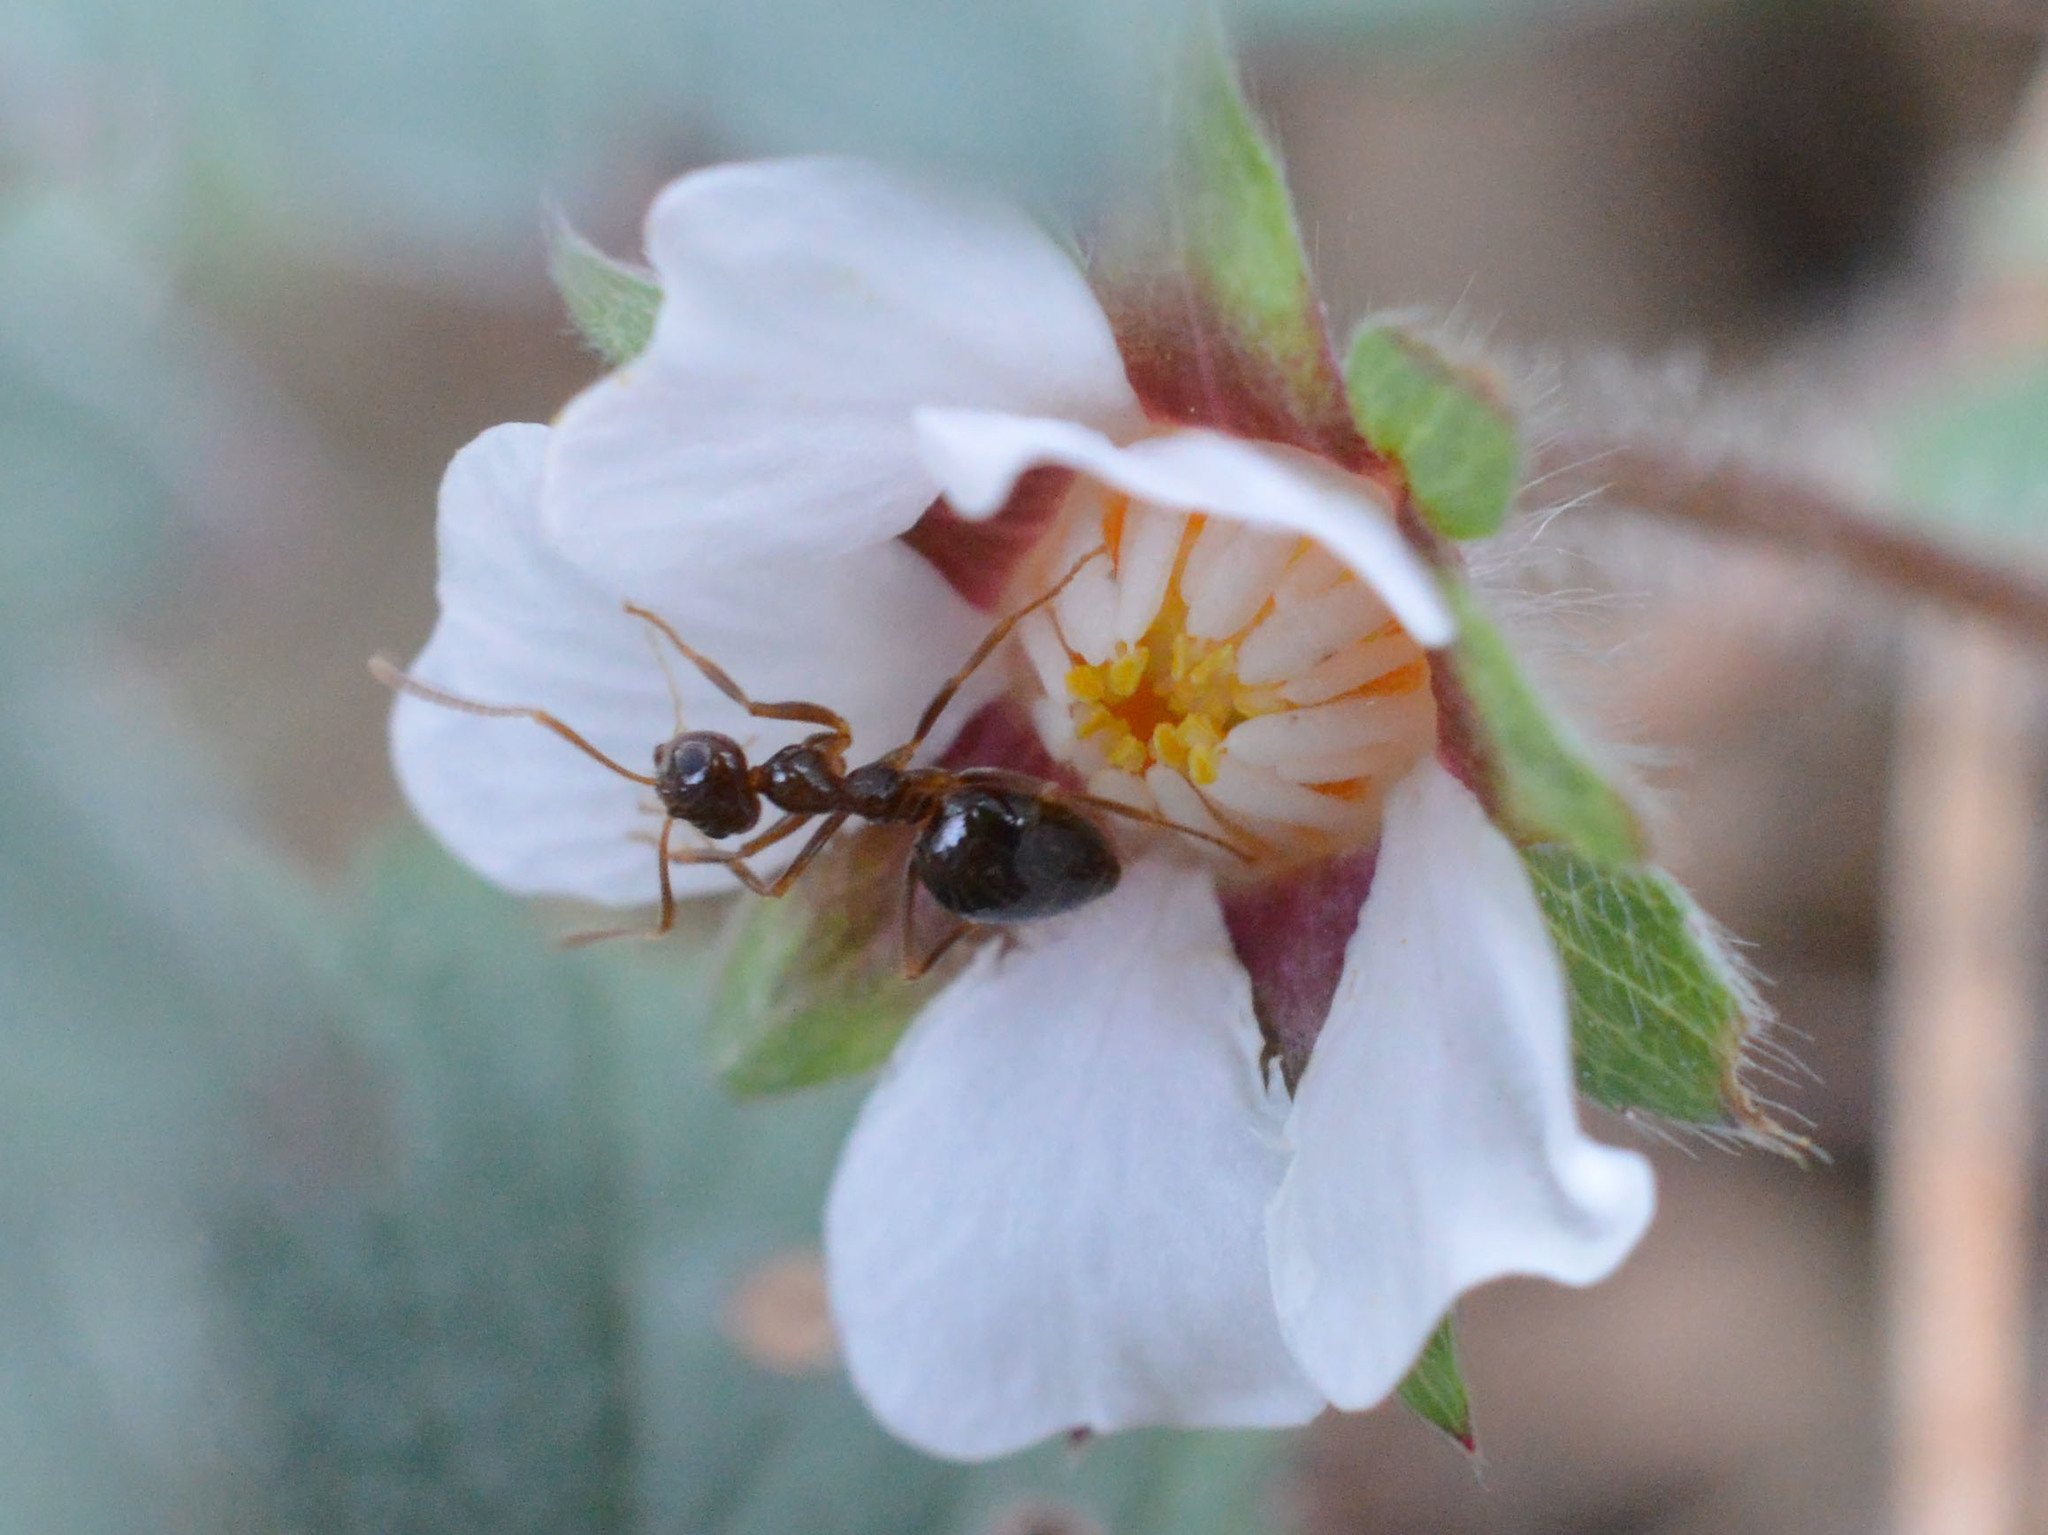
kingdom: Animalia
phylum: Arthropoda
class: Insecta
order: Hymenoptera
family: Formicidae
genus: Prenolepis
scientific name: Prenolepis nitens
